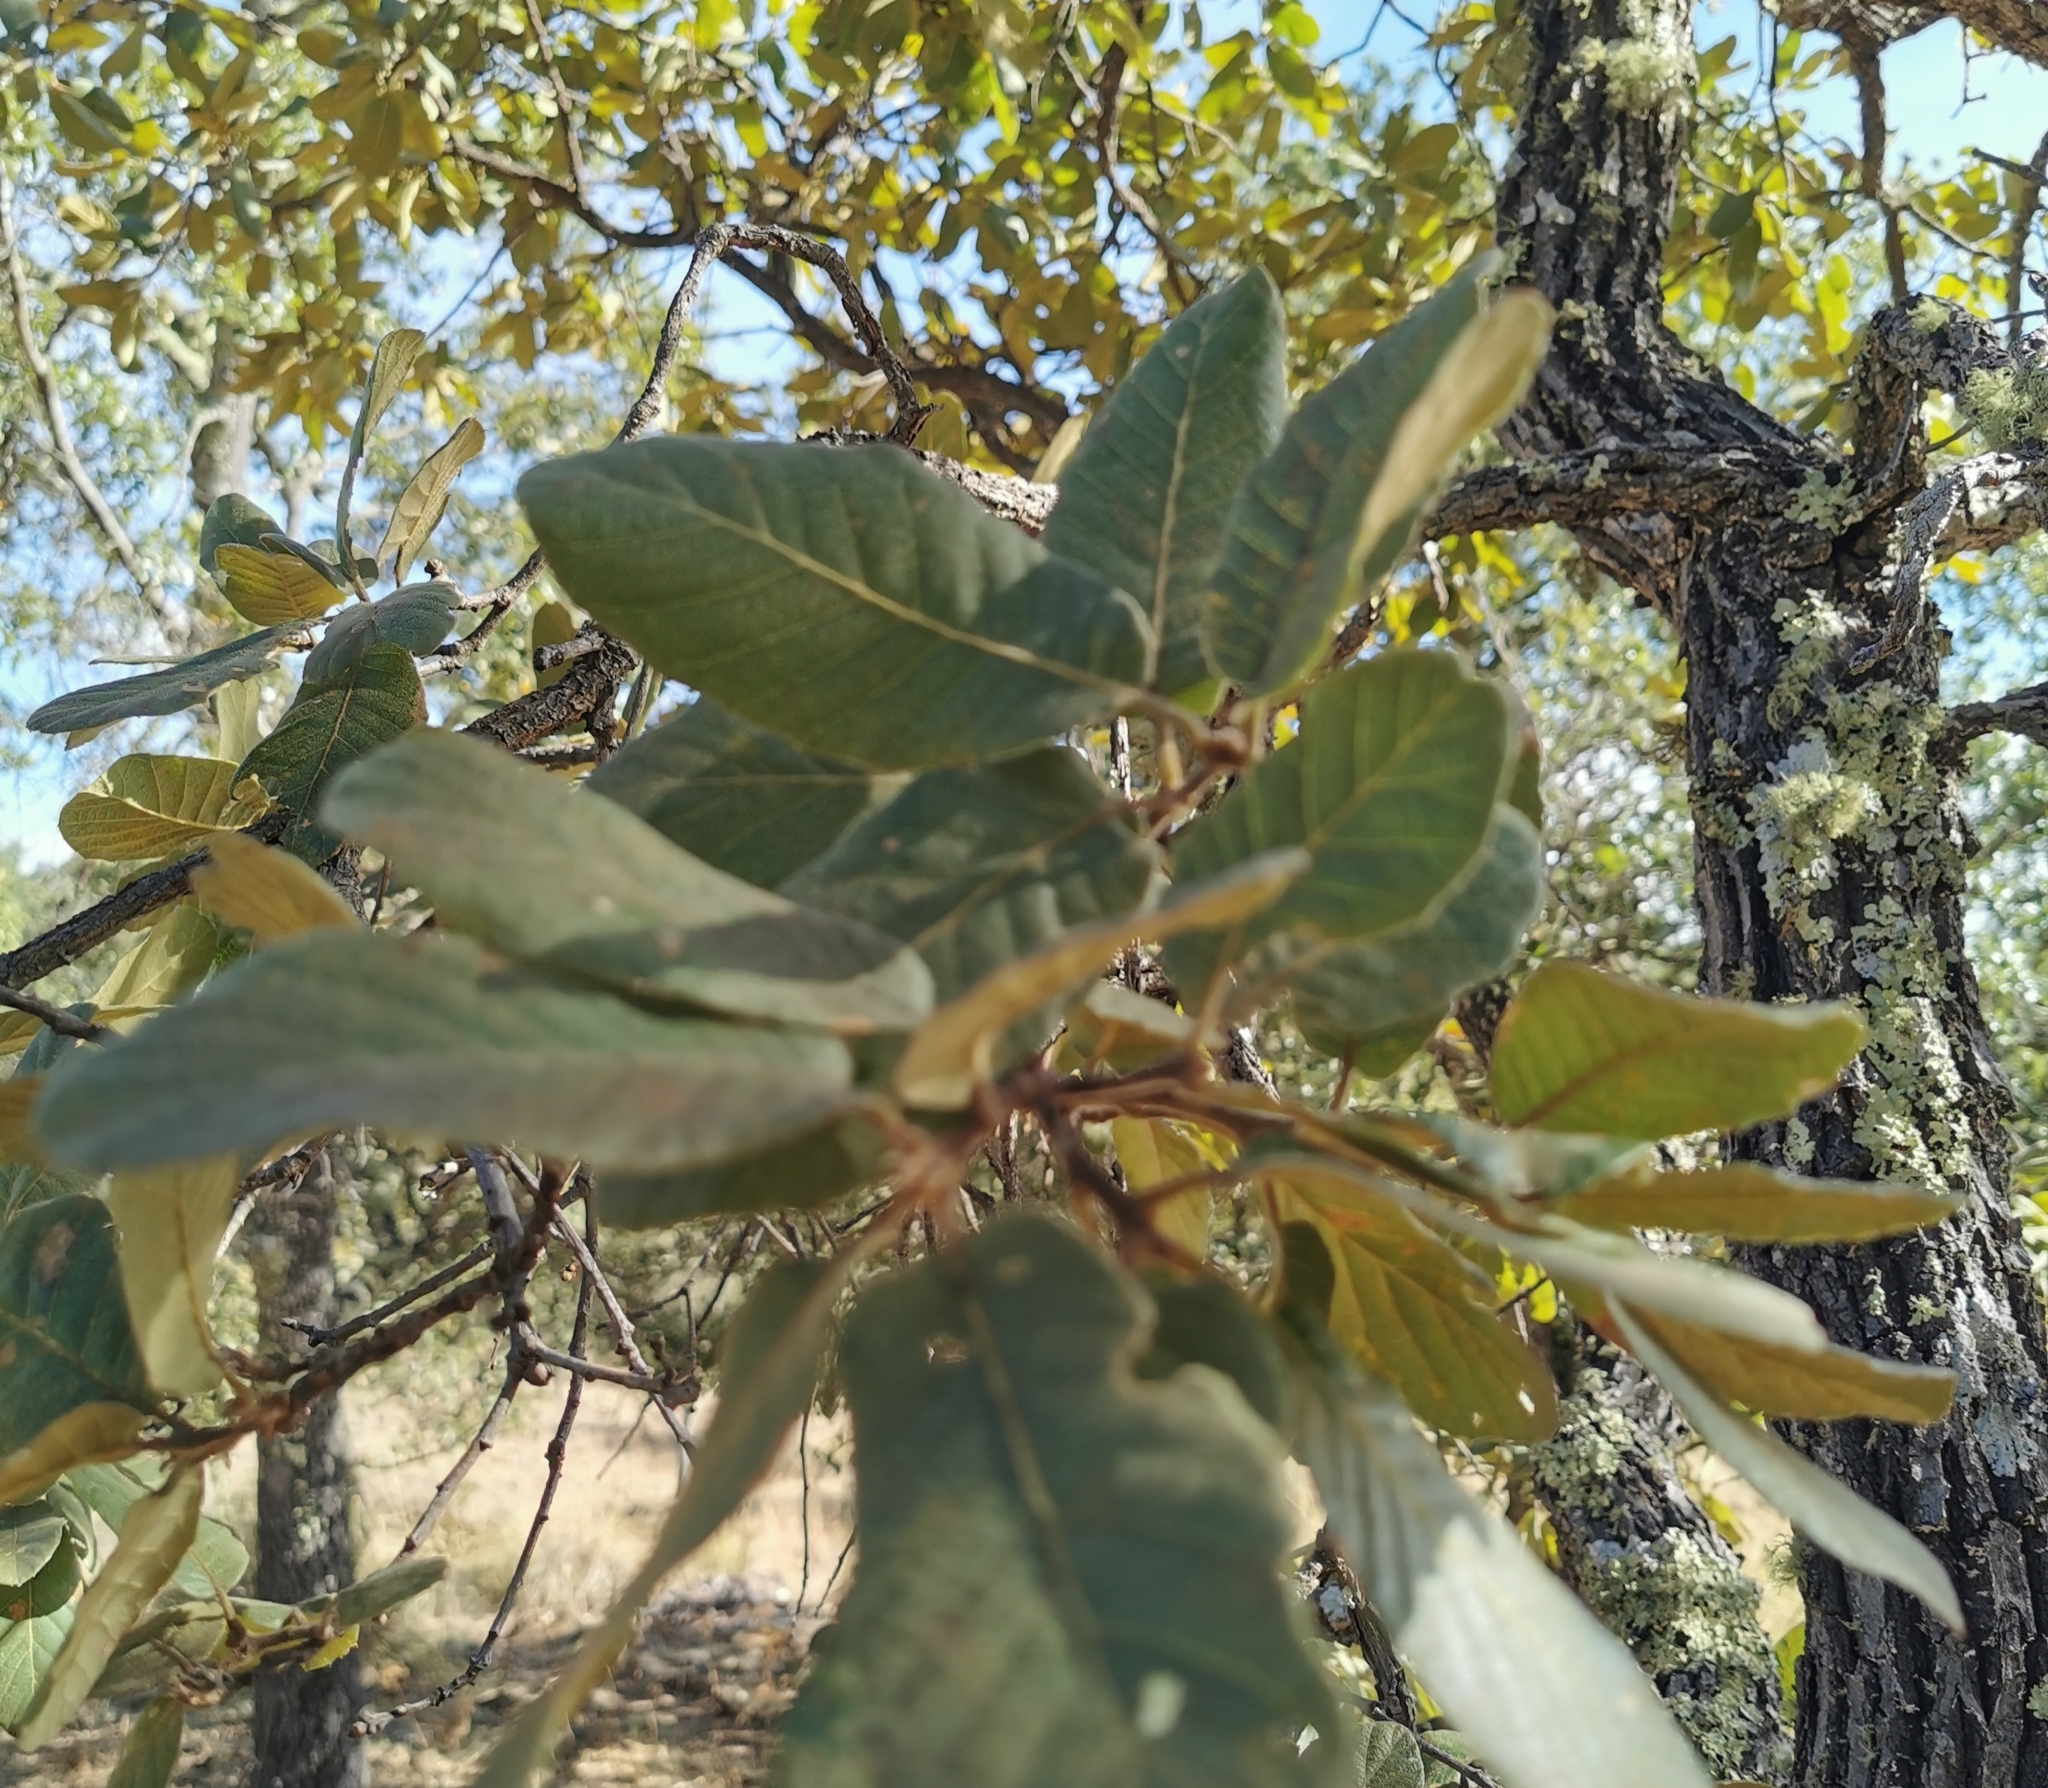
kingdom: Plantae
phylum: Tracheophyta
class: Magnoliopsida
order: Fagales
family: Fagaceae
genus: Quercus
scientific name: Quercus convallata
